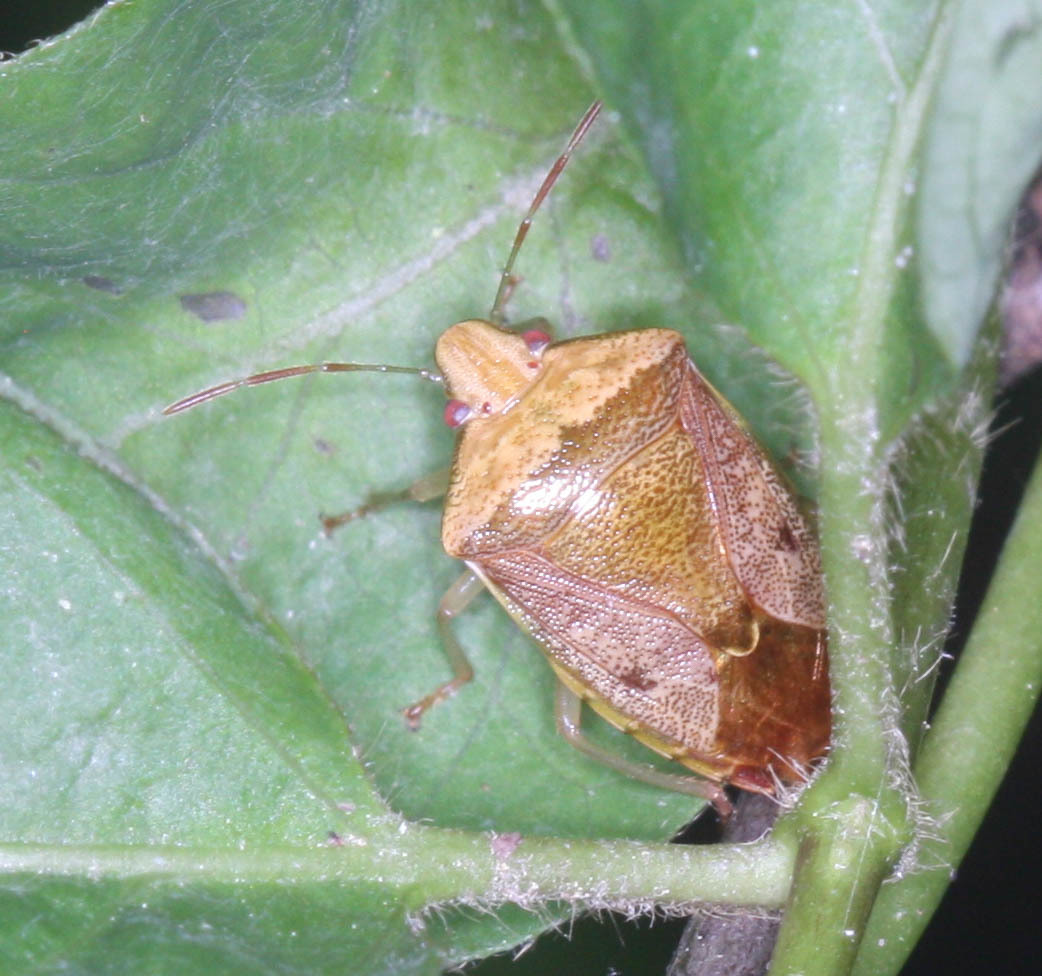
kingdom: Animalia
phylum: Arthropoda
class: Insecta
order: Hemiptera
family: Pentatomidae
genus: Banasa
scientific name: Banasa calva
